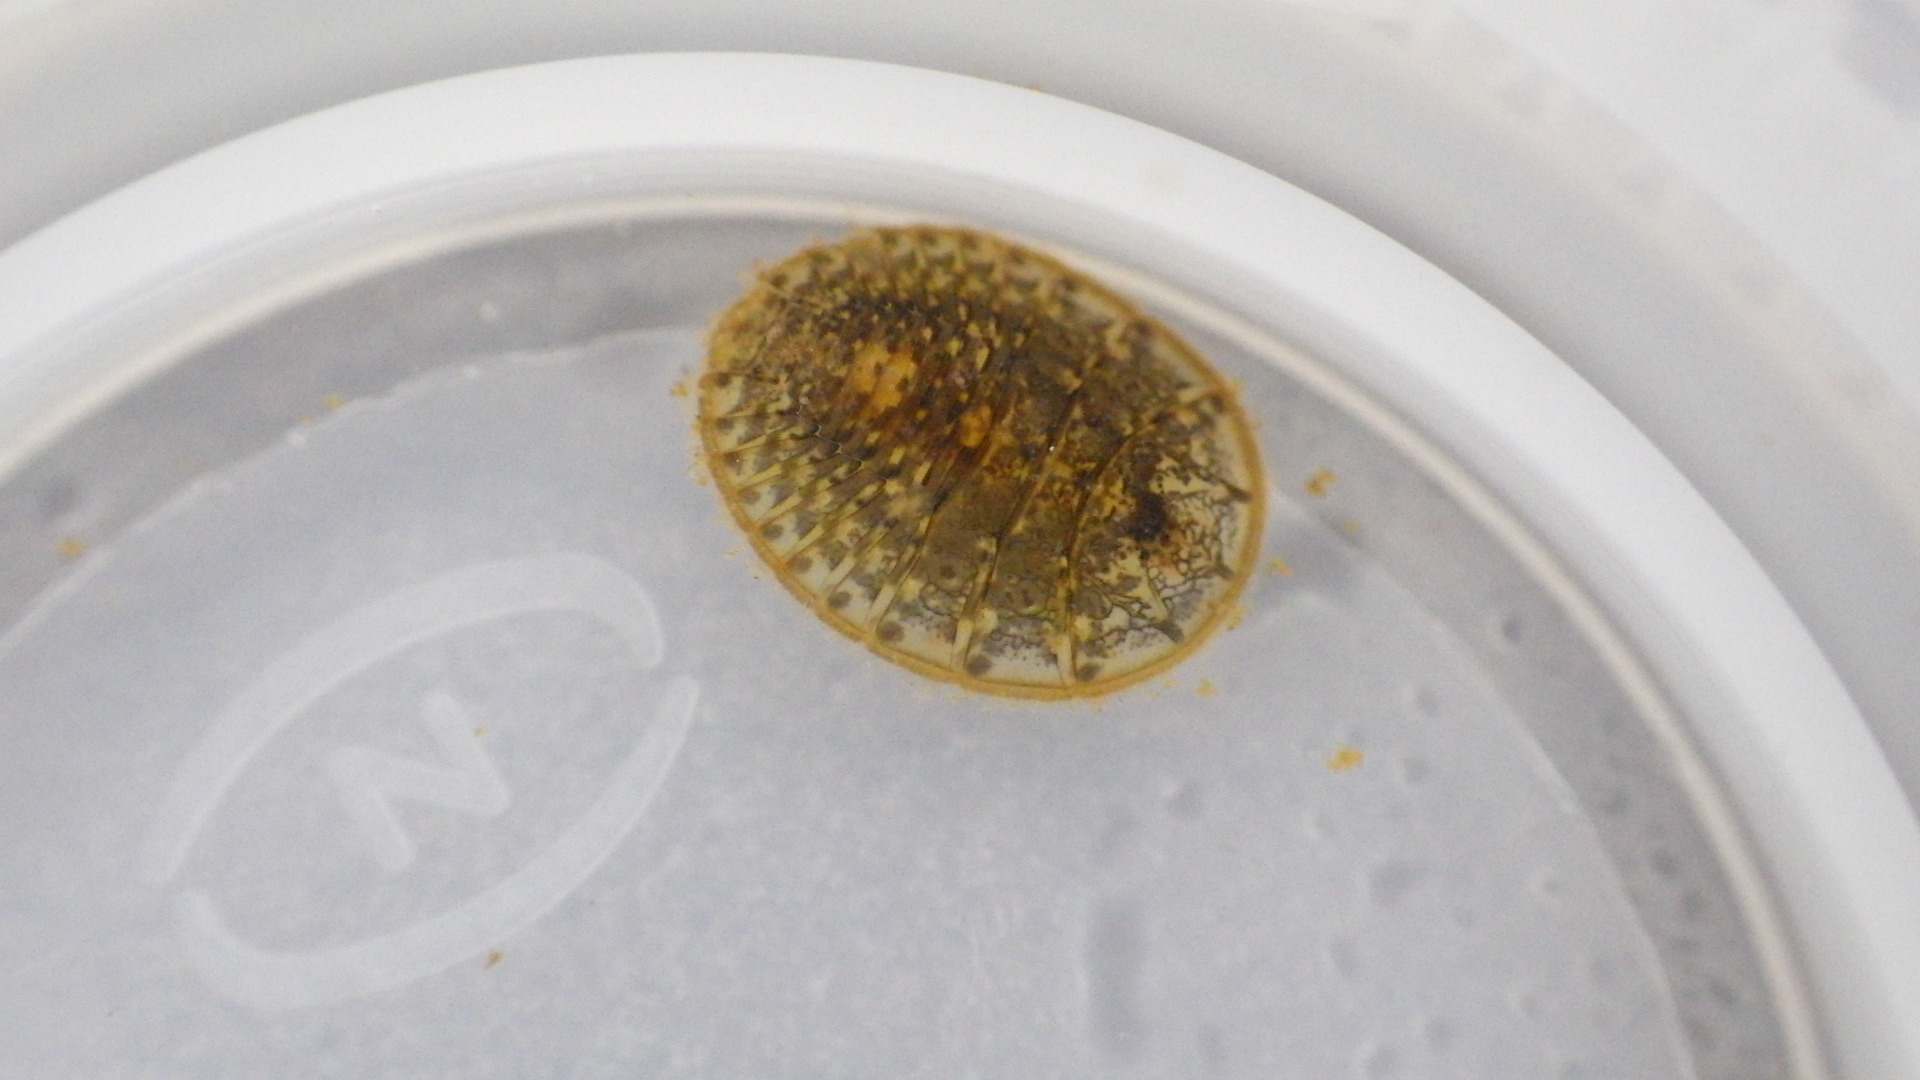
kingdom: Animalia
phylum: Arthropoda
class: Insecta
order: Coleoptera
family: Psephenidae
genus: Psephenus
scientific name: Psephenus herricki
